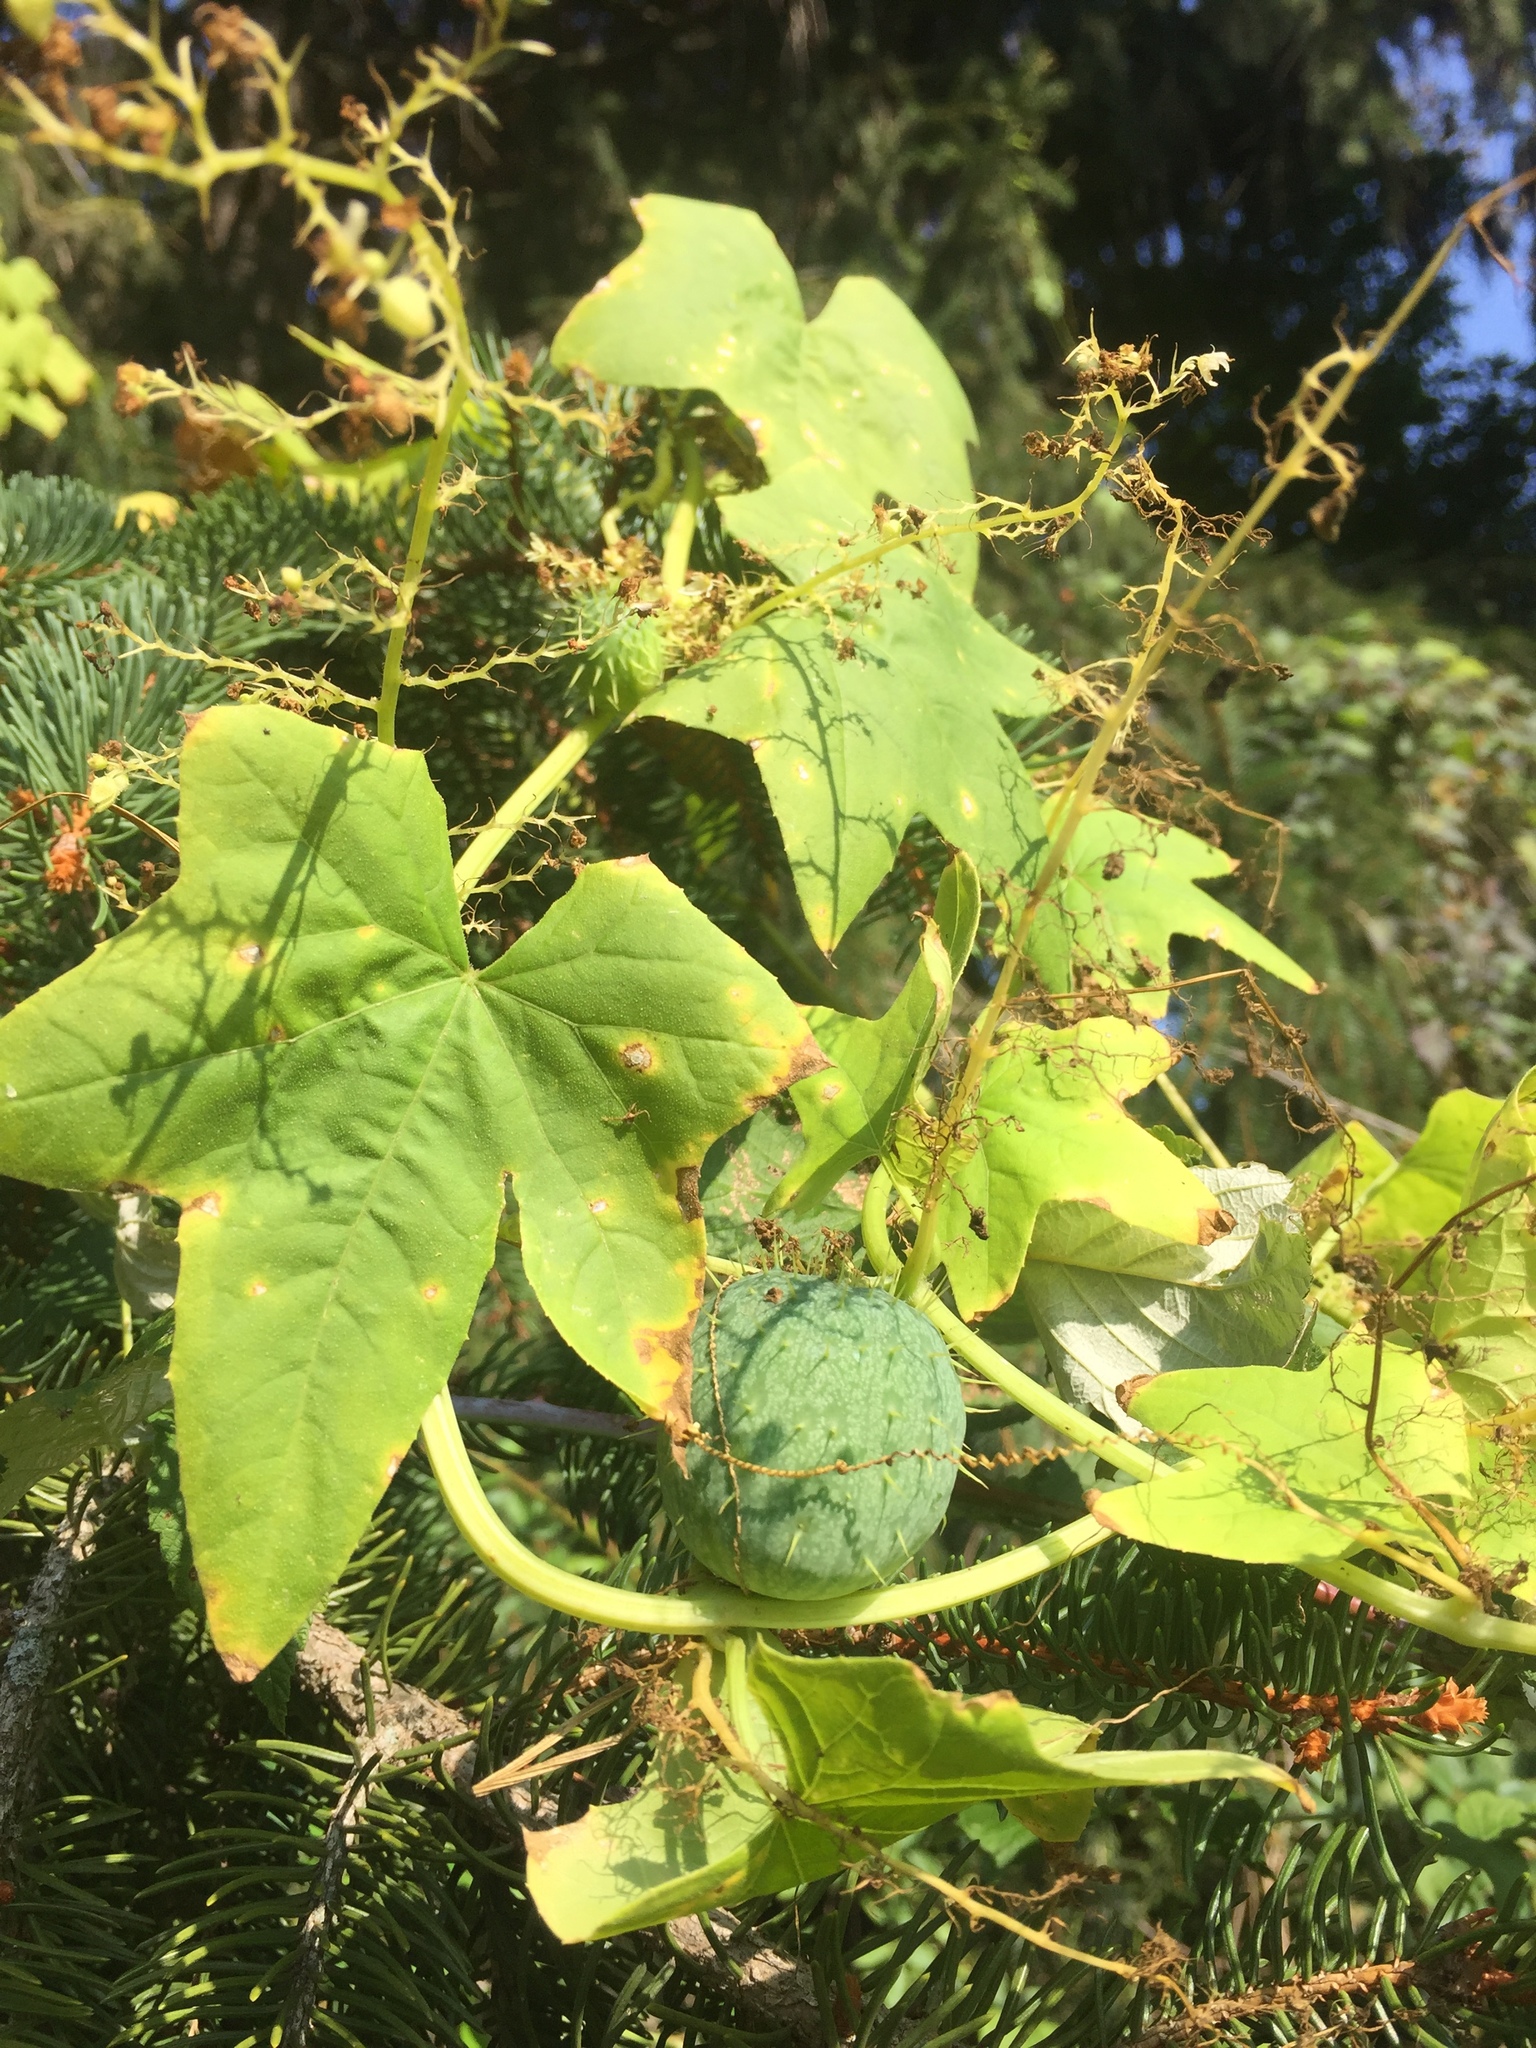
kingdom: Plantae
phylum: Tracheophyta
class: Magnoliopsida
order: Cucurbitales
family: Cucurbitaceae
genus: Echinocystis
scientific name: Echinocystis lobata
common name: Wild cucumber
